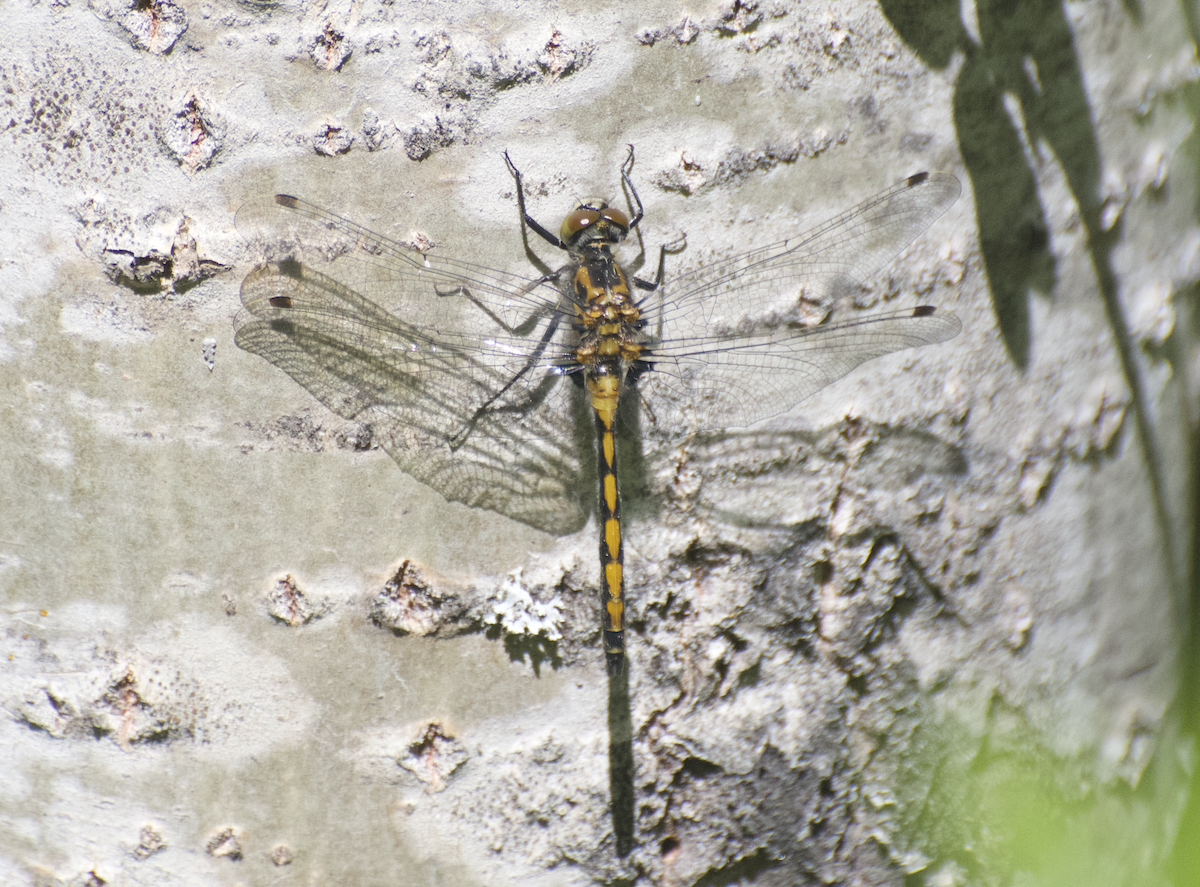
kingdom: Animalia
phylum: Arthropoda
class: Insecta
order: Odonata
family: Libellulidae
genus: Leucorrhinia
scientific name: Leucorrhinia borealis
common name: Boreal whiteface
